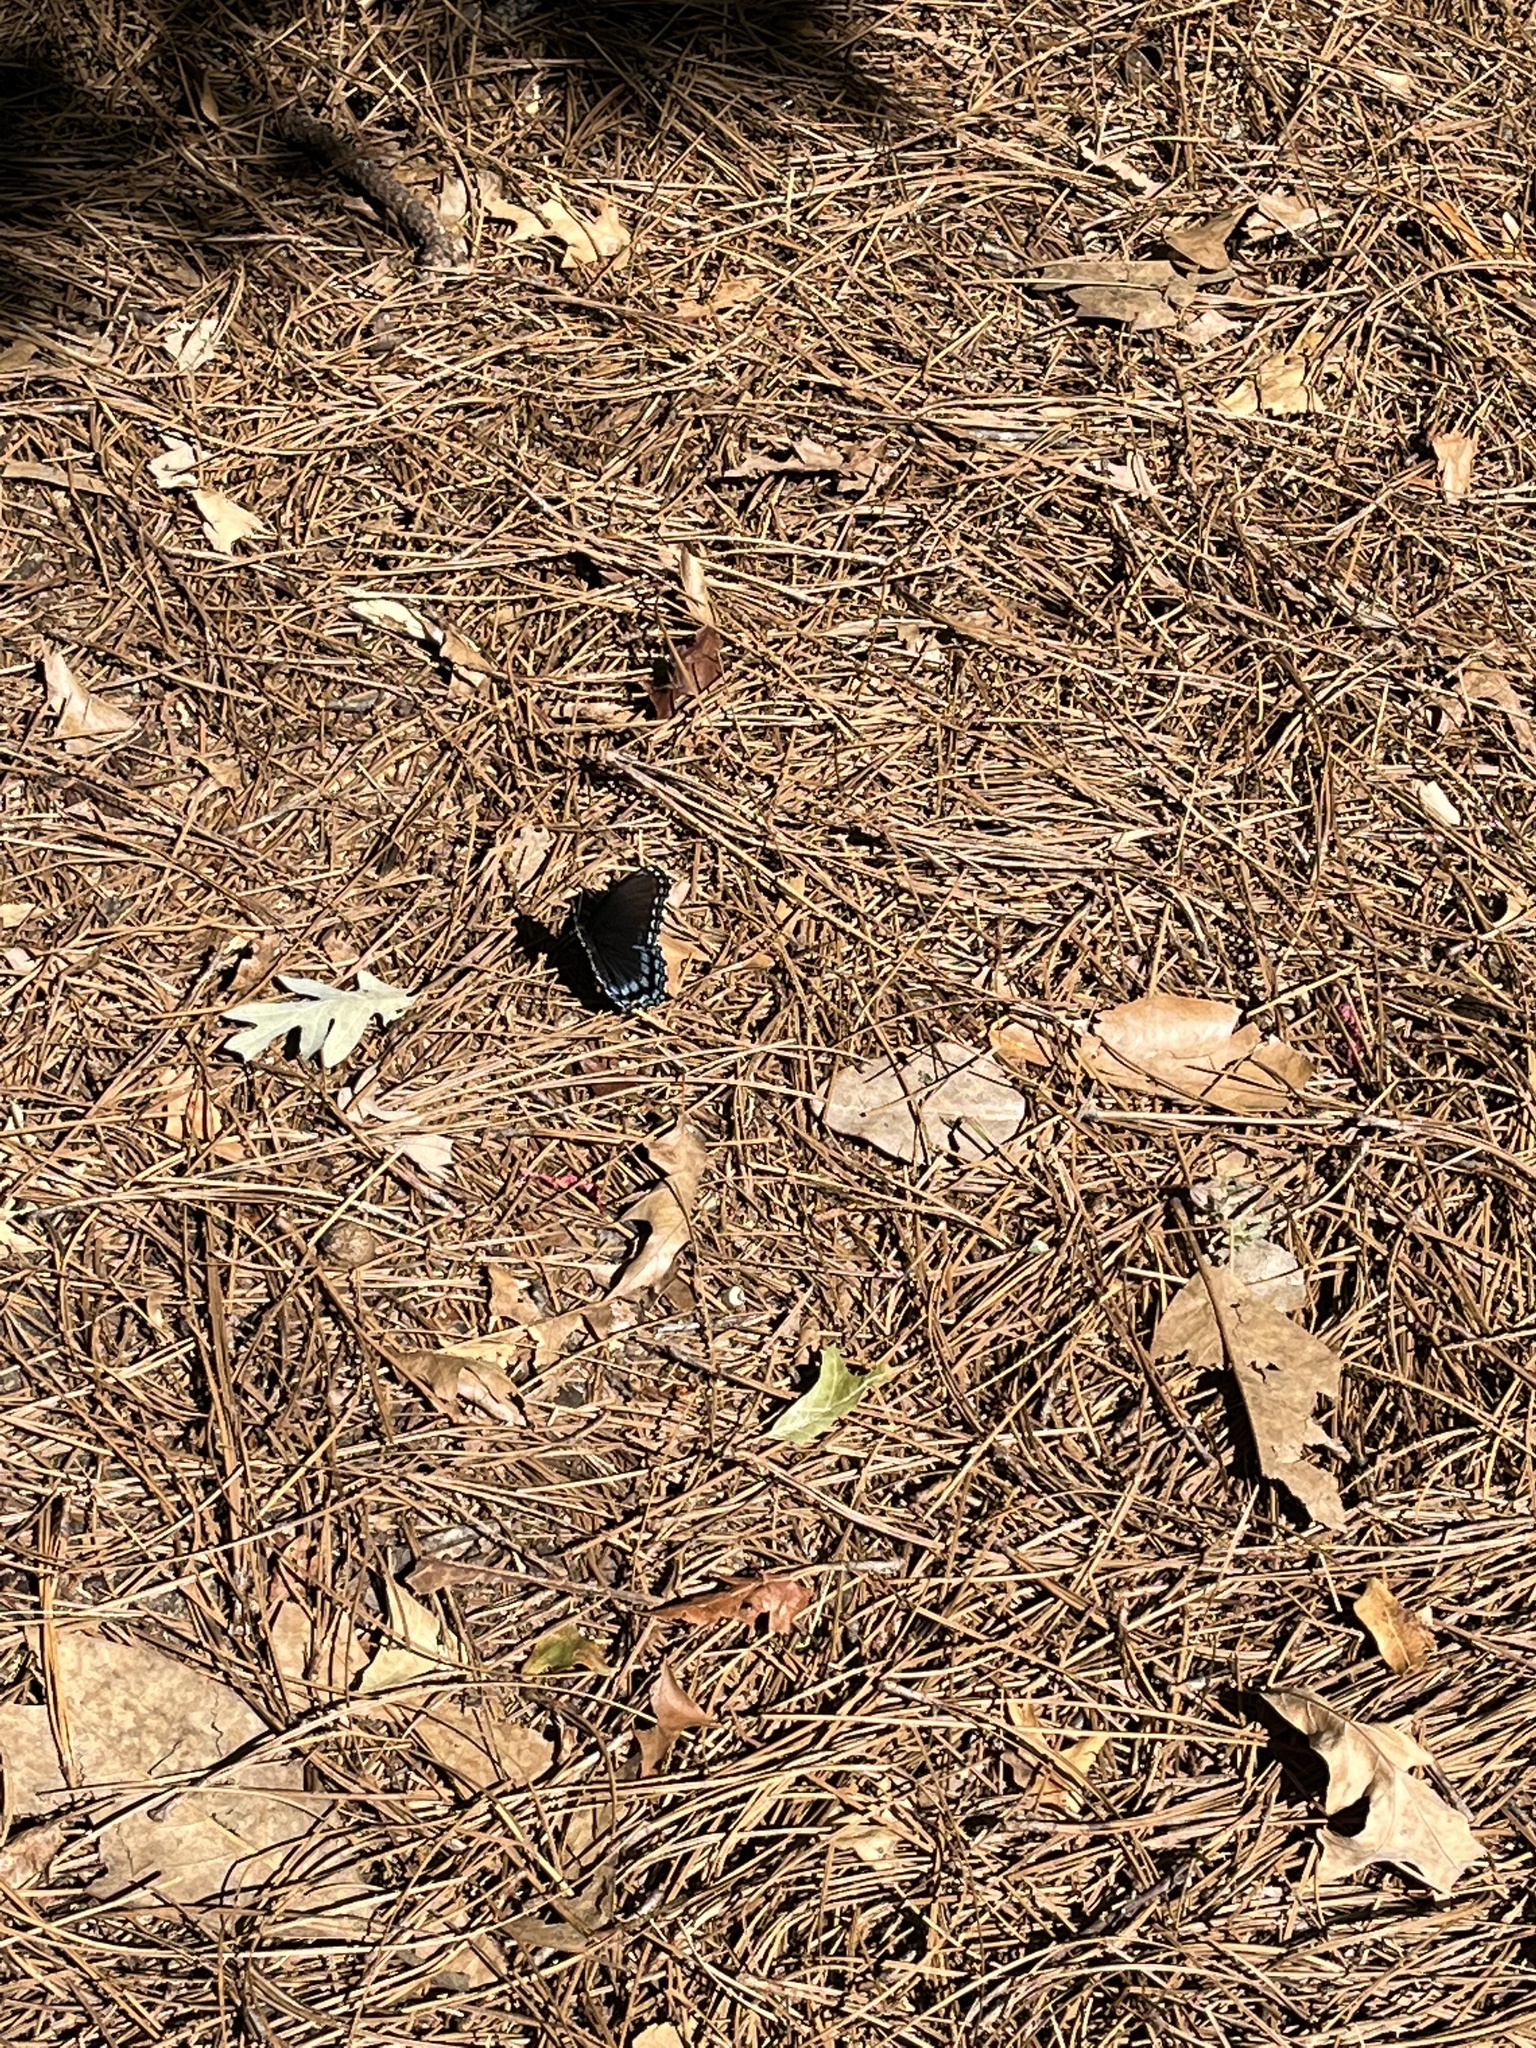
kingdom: Animalia
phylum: Arthropoda
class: Insecta
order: Lepidoptera
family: Nymphalidae
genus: Limenitis
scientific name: Limenitis astyanax
